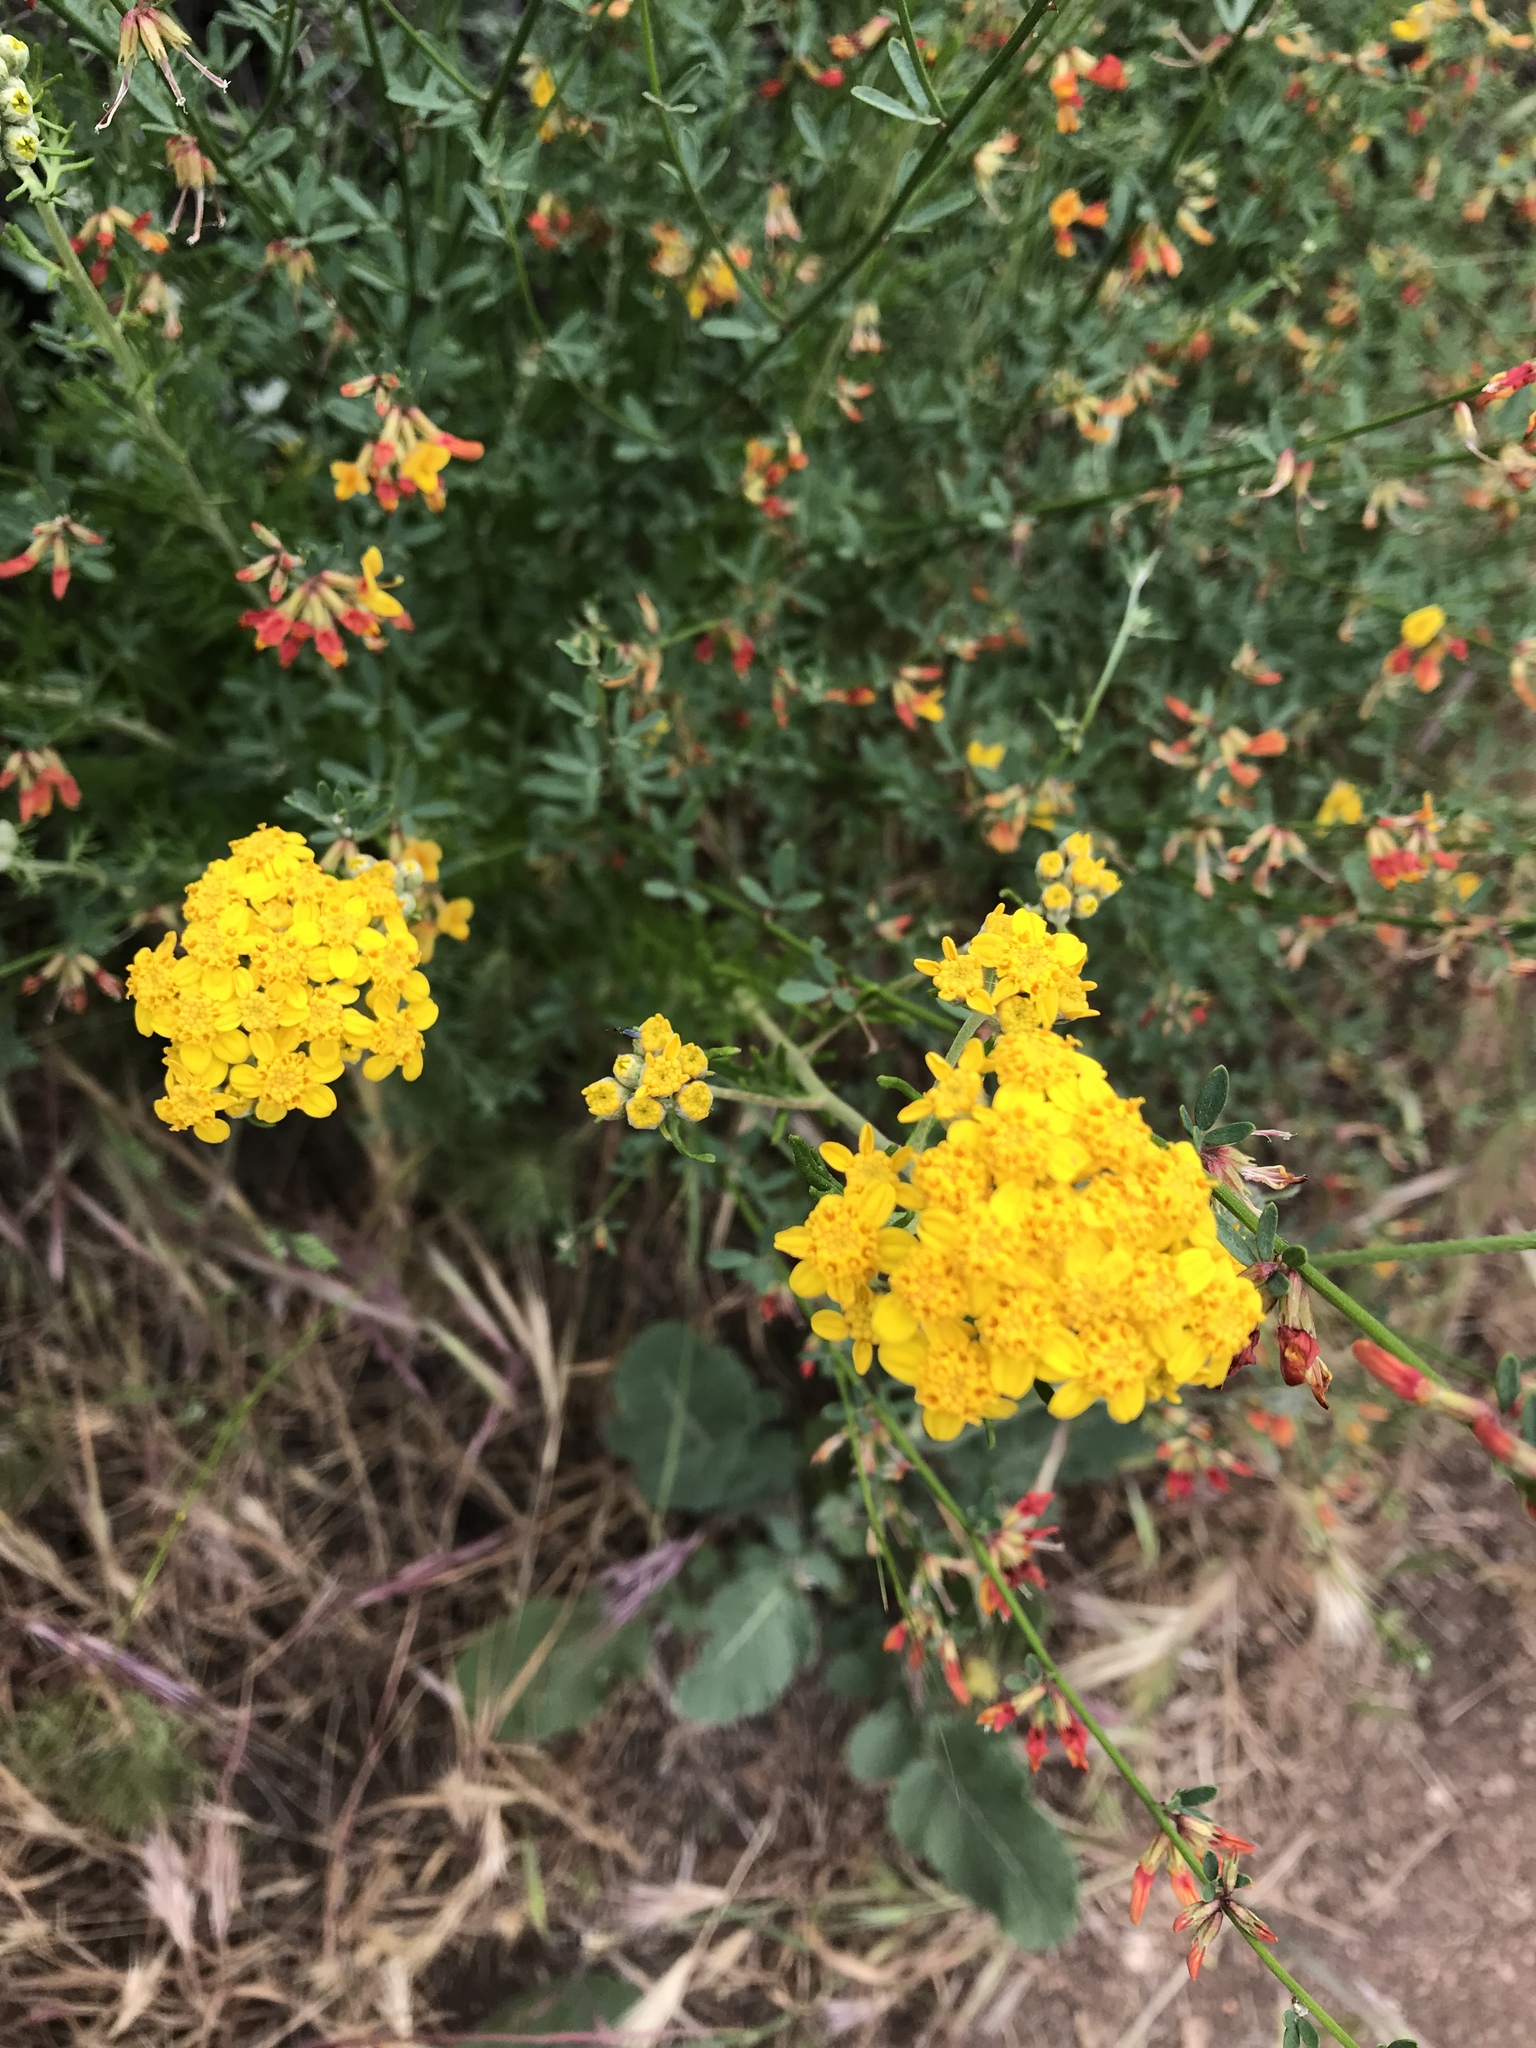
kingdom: Plantae
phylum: Tracheophyta
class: Magnoliopsida
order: Asterales
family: Asteraceae
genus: Eriophyllum
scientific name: Eriophyllum confertiflorum
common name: Golden-yarrow
